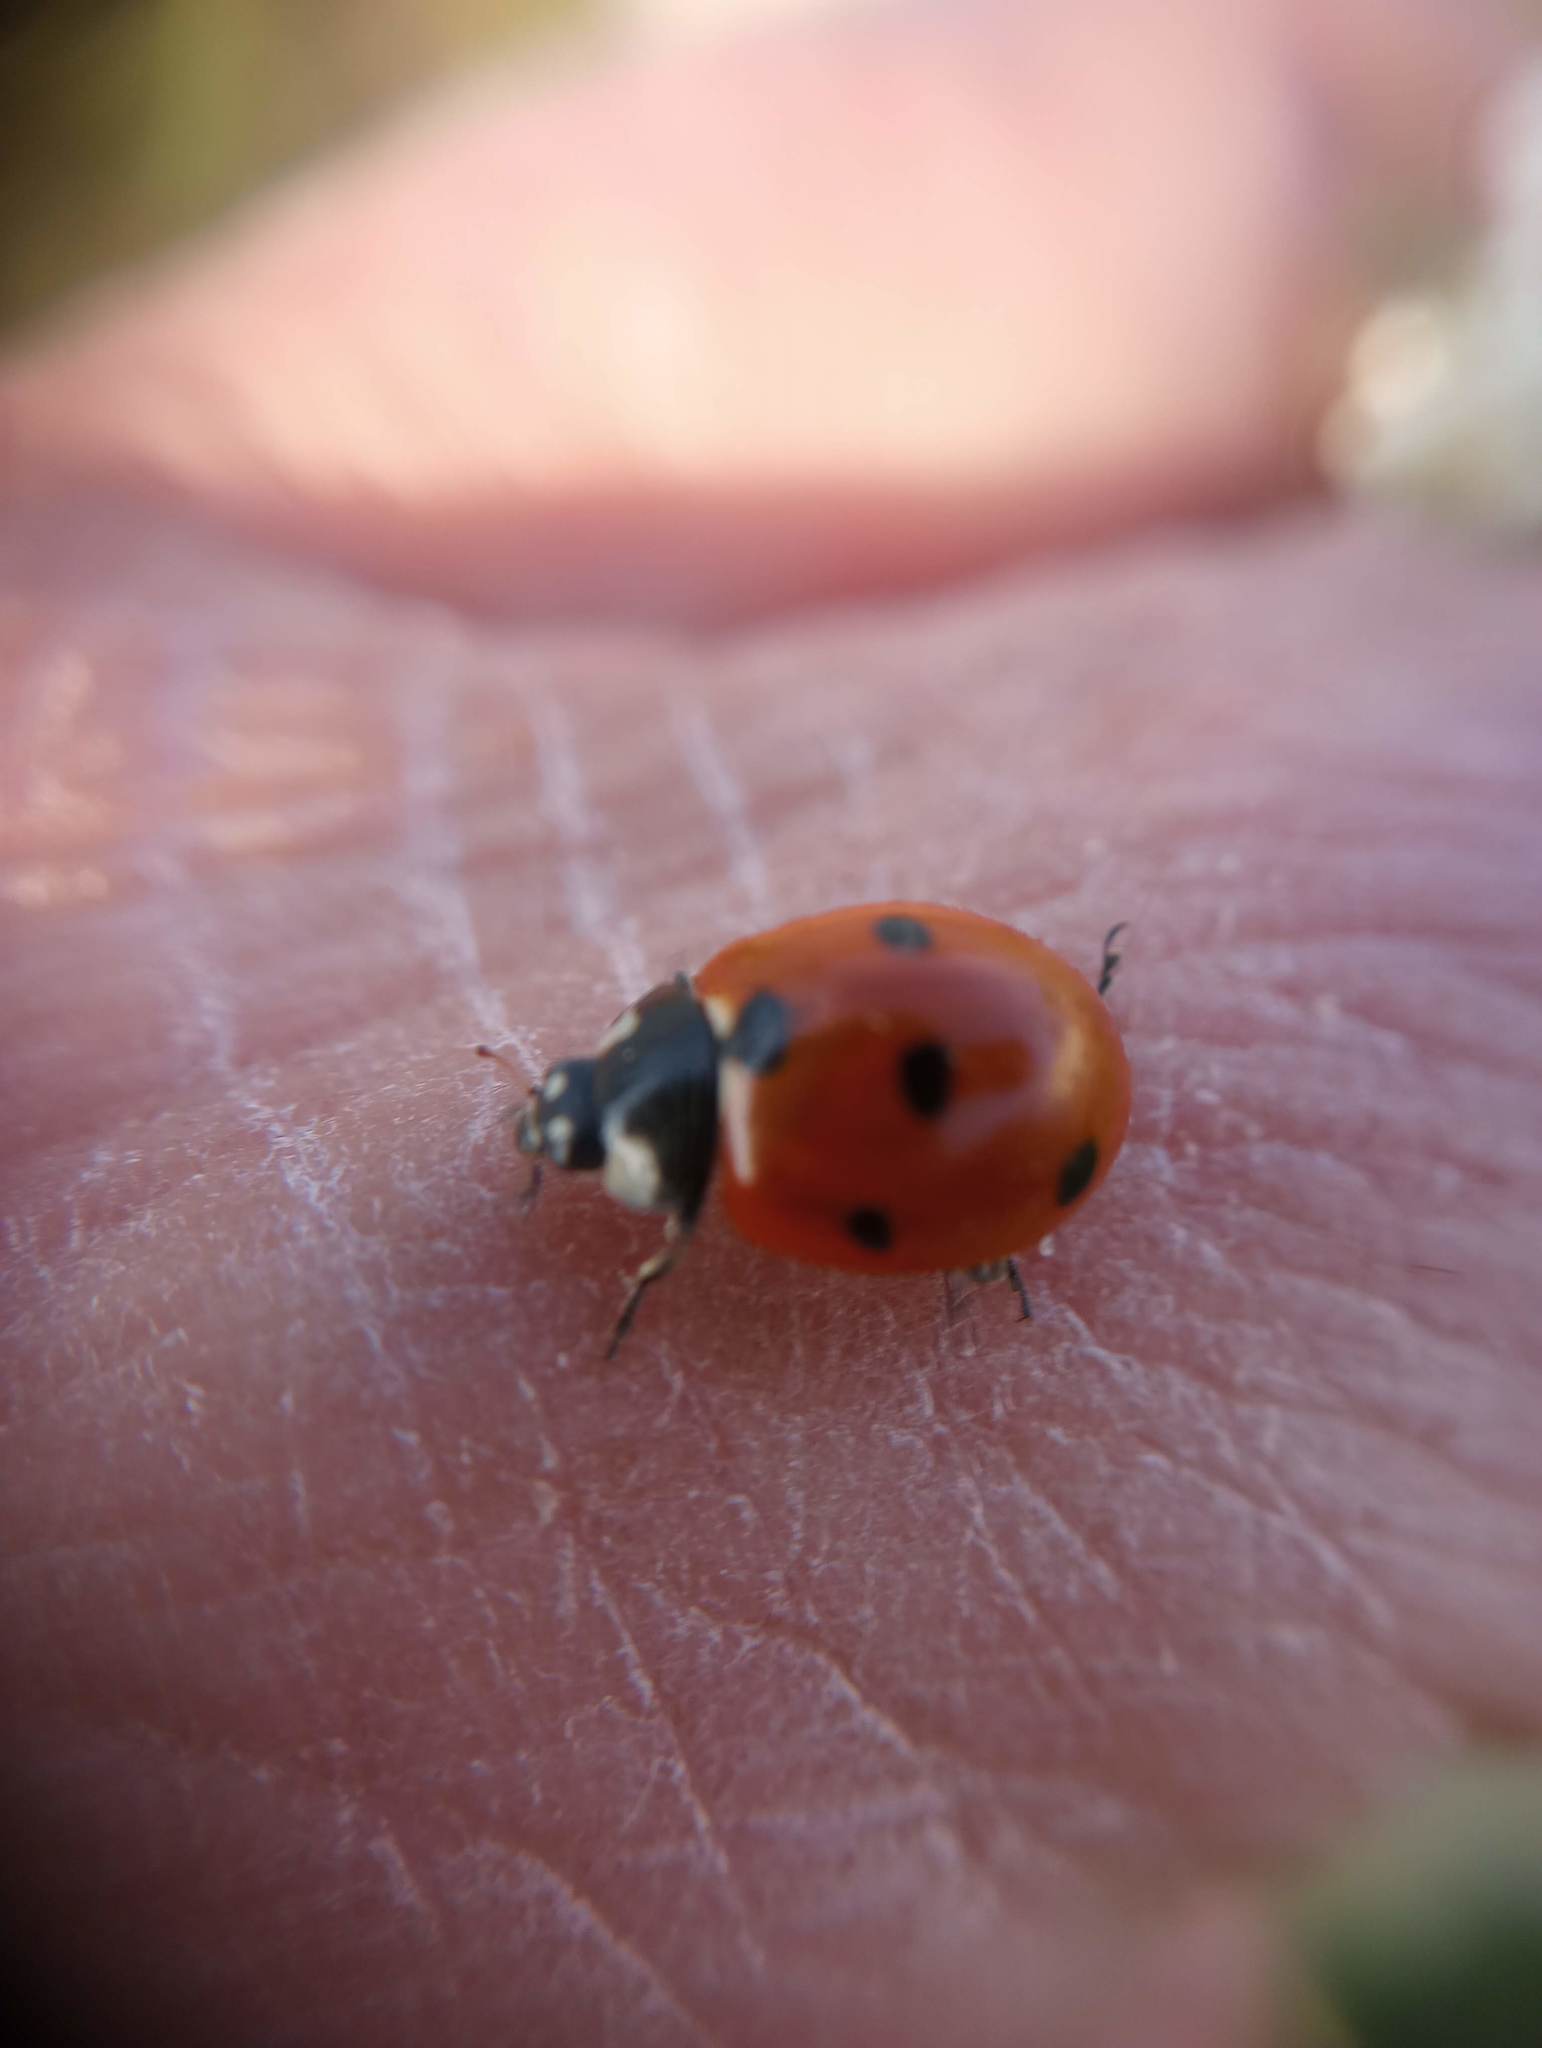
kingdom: Animalia
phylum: Arthropoda
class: Insecta
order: Coleoptera
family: Coccinellidae
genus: Coccinella
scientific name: Coccinella septempunctata
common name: Sevenspotted lady beetle
